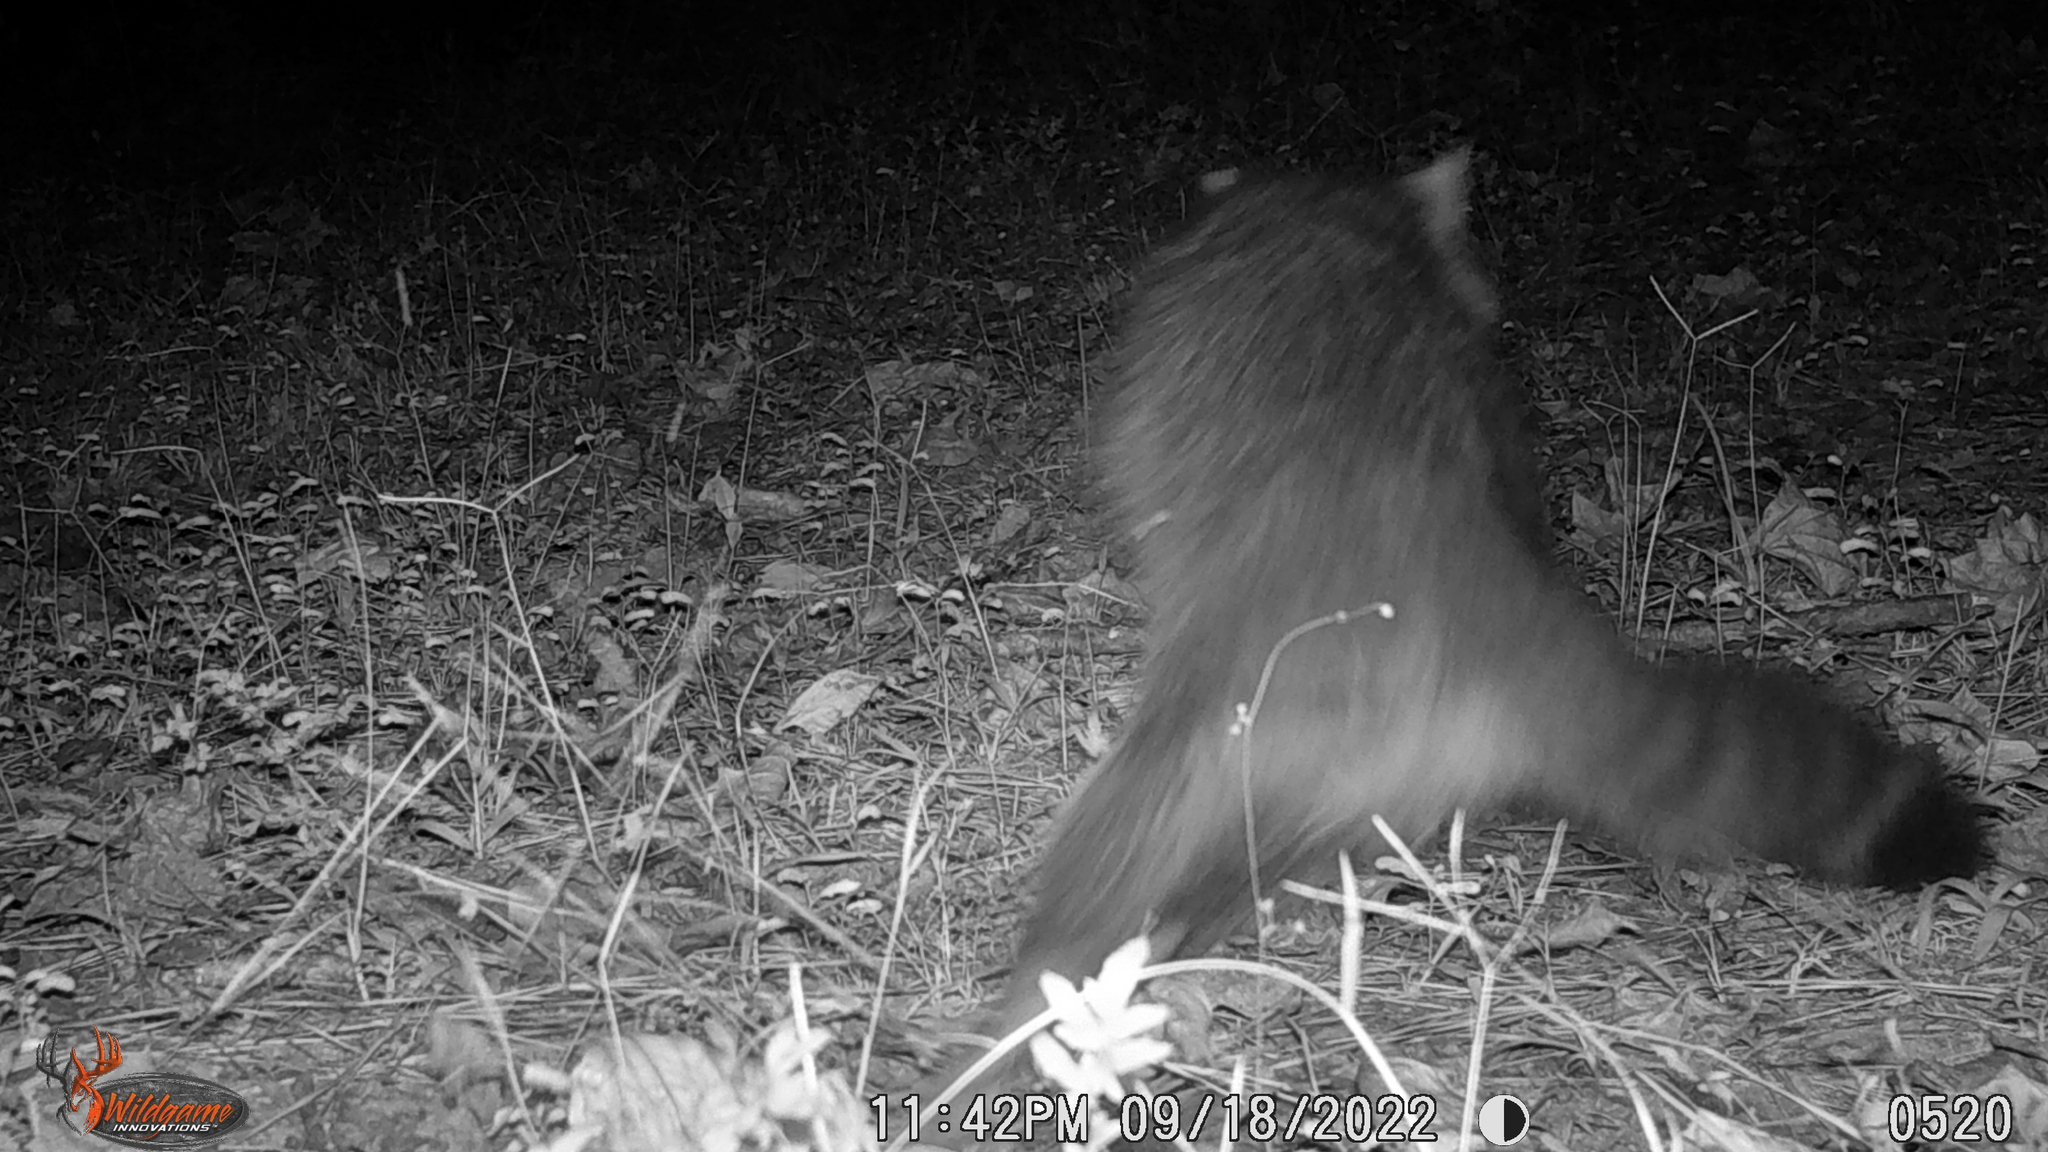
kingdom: Animalia
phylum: Chordata
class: Mammalia
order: Carnivora
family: Procyonidae
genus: Procyon
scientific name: Procyon lotor
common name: Raccoon
